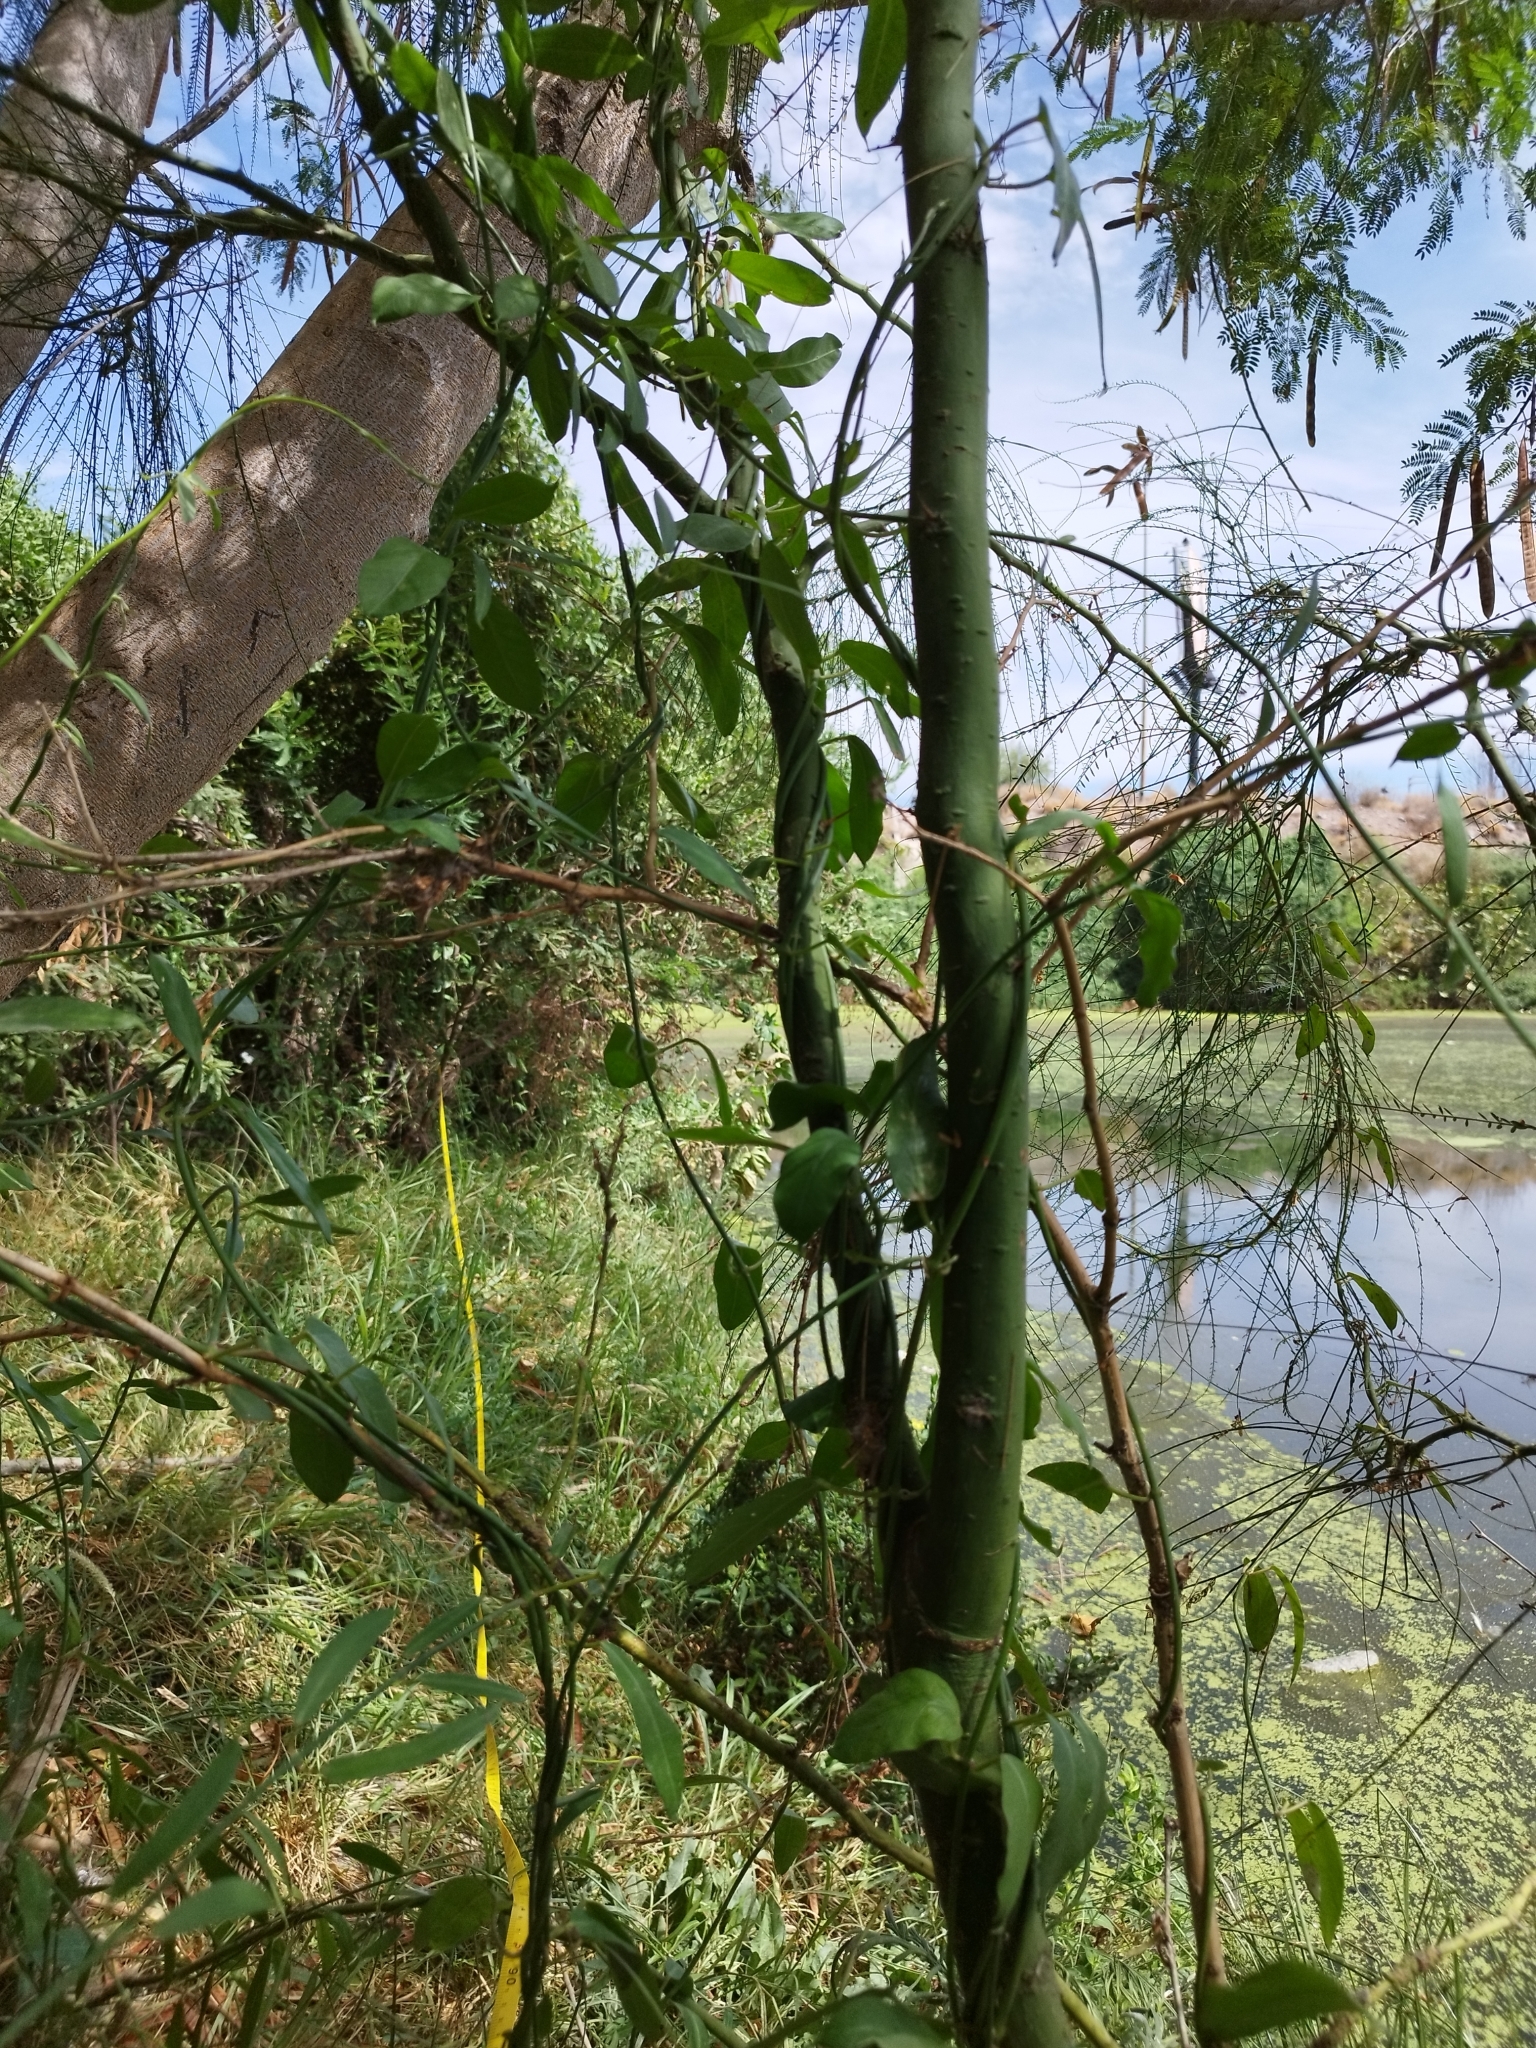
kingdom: Plantae
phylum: Tracheophyta
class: Magnoliopsida
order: Gentianales
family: Apocynaceae
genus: Funastrum
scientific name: Funastrum clausum
